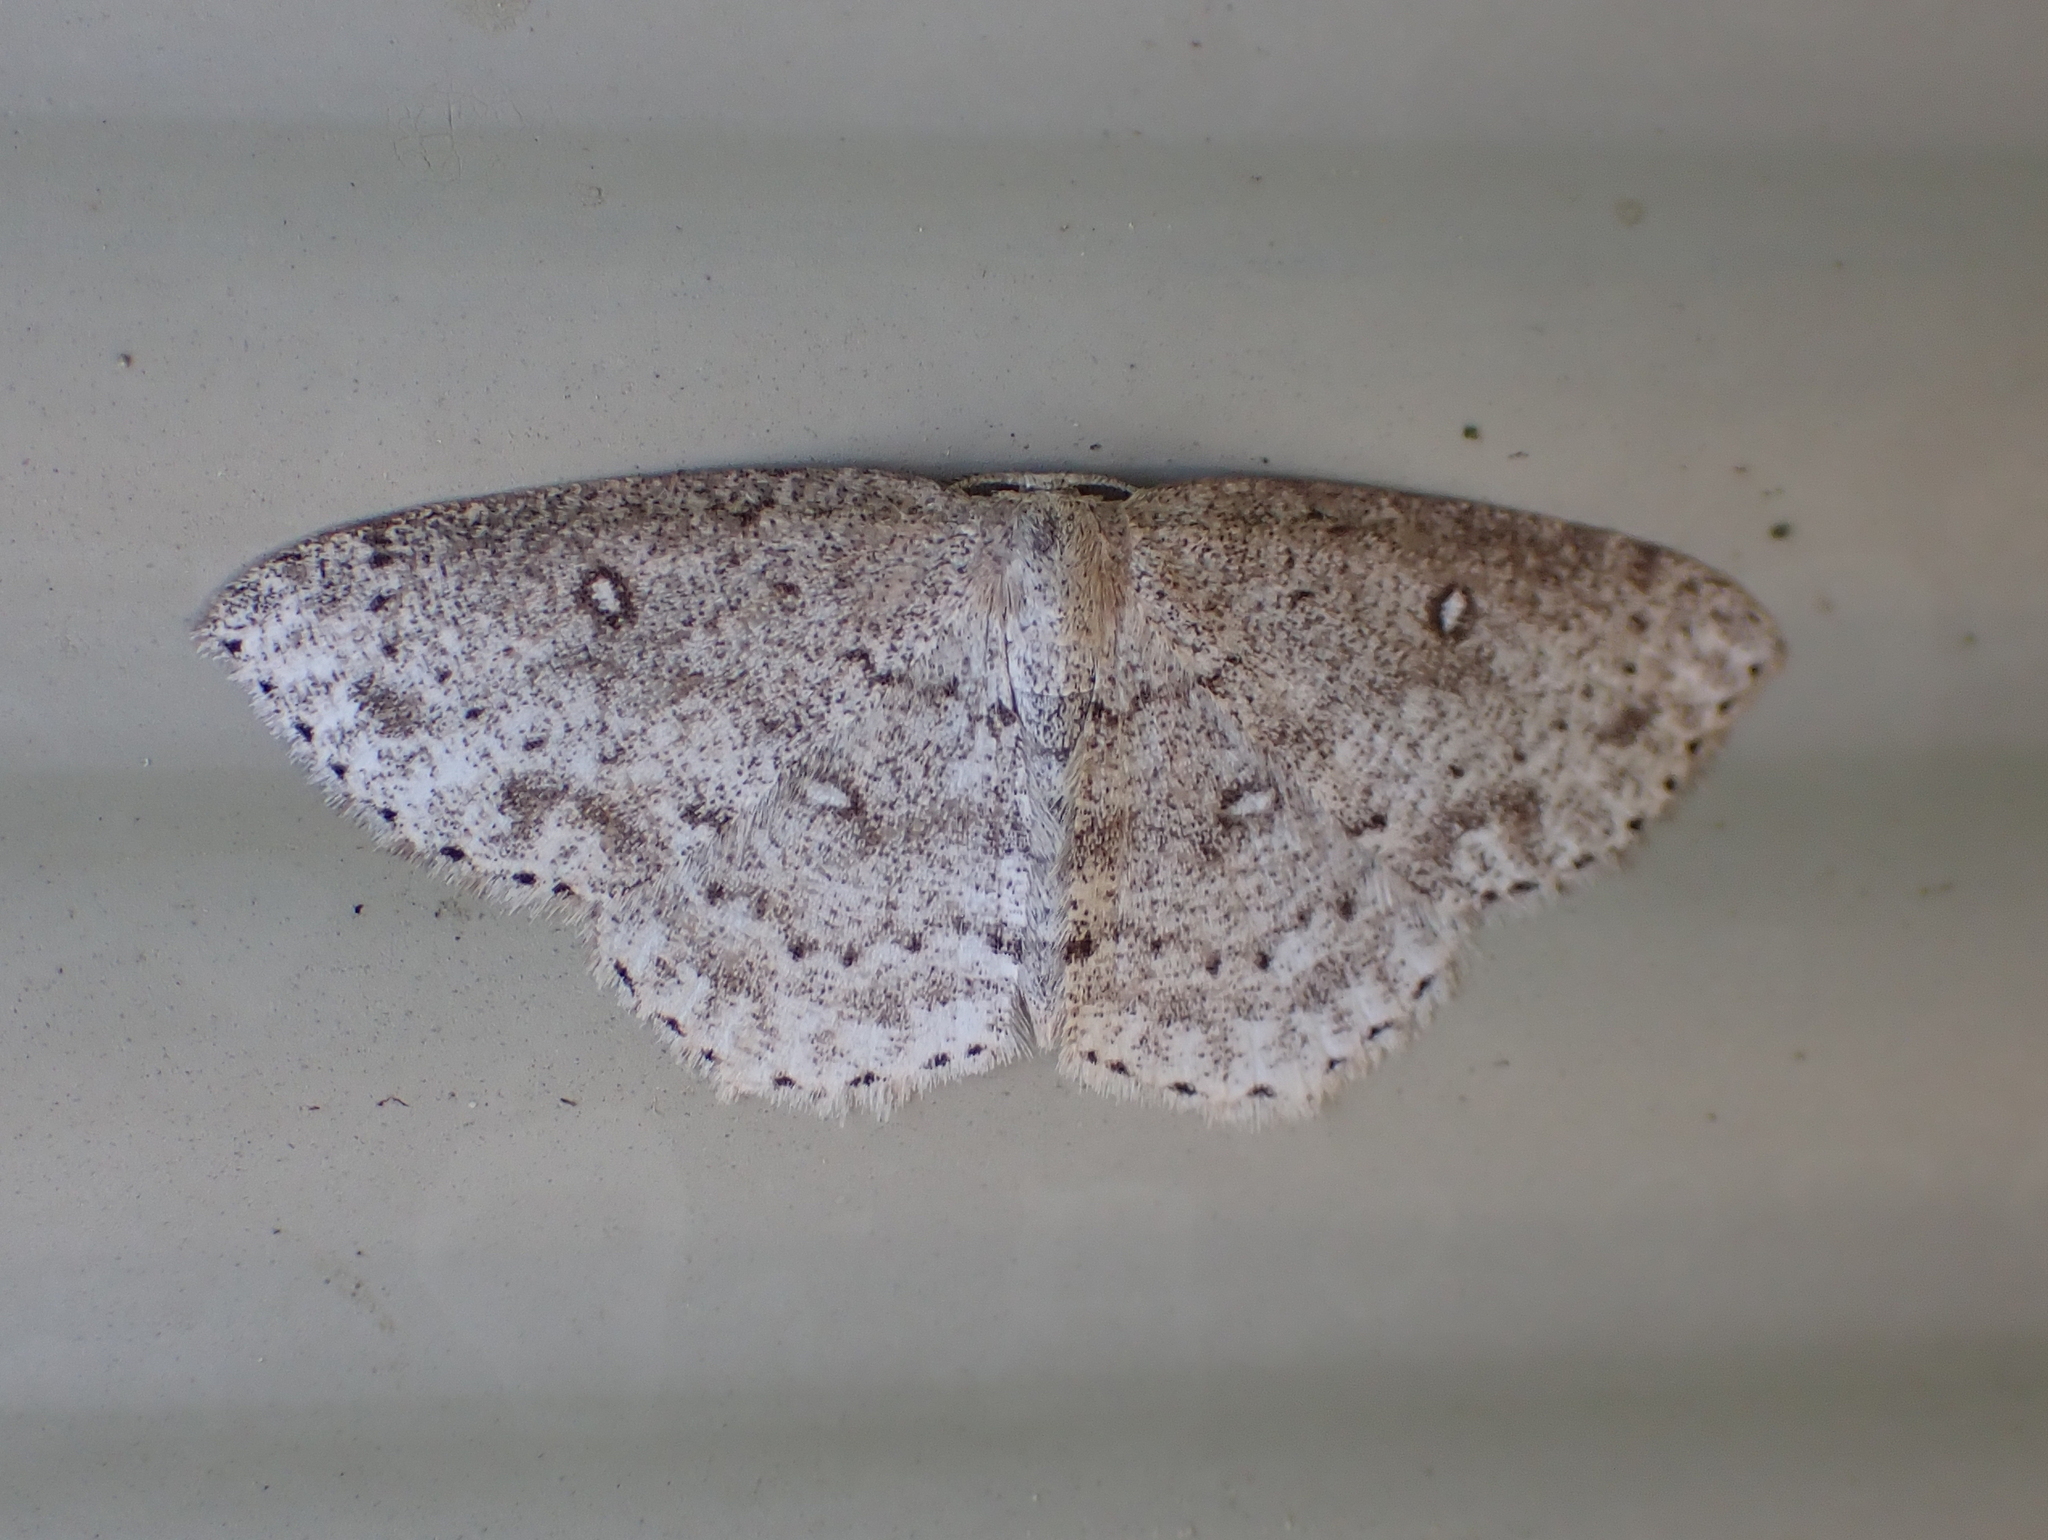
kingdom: Animalia
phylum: Arthropoda
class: Insecta
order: Lepidoptera
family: Geometridae
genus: Cyclophora
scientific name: Cyclophora pendulinaria
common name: Sweet fern geometer
